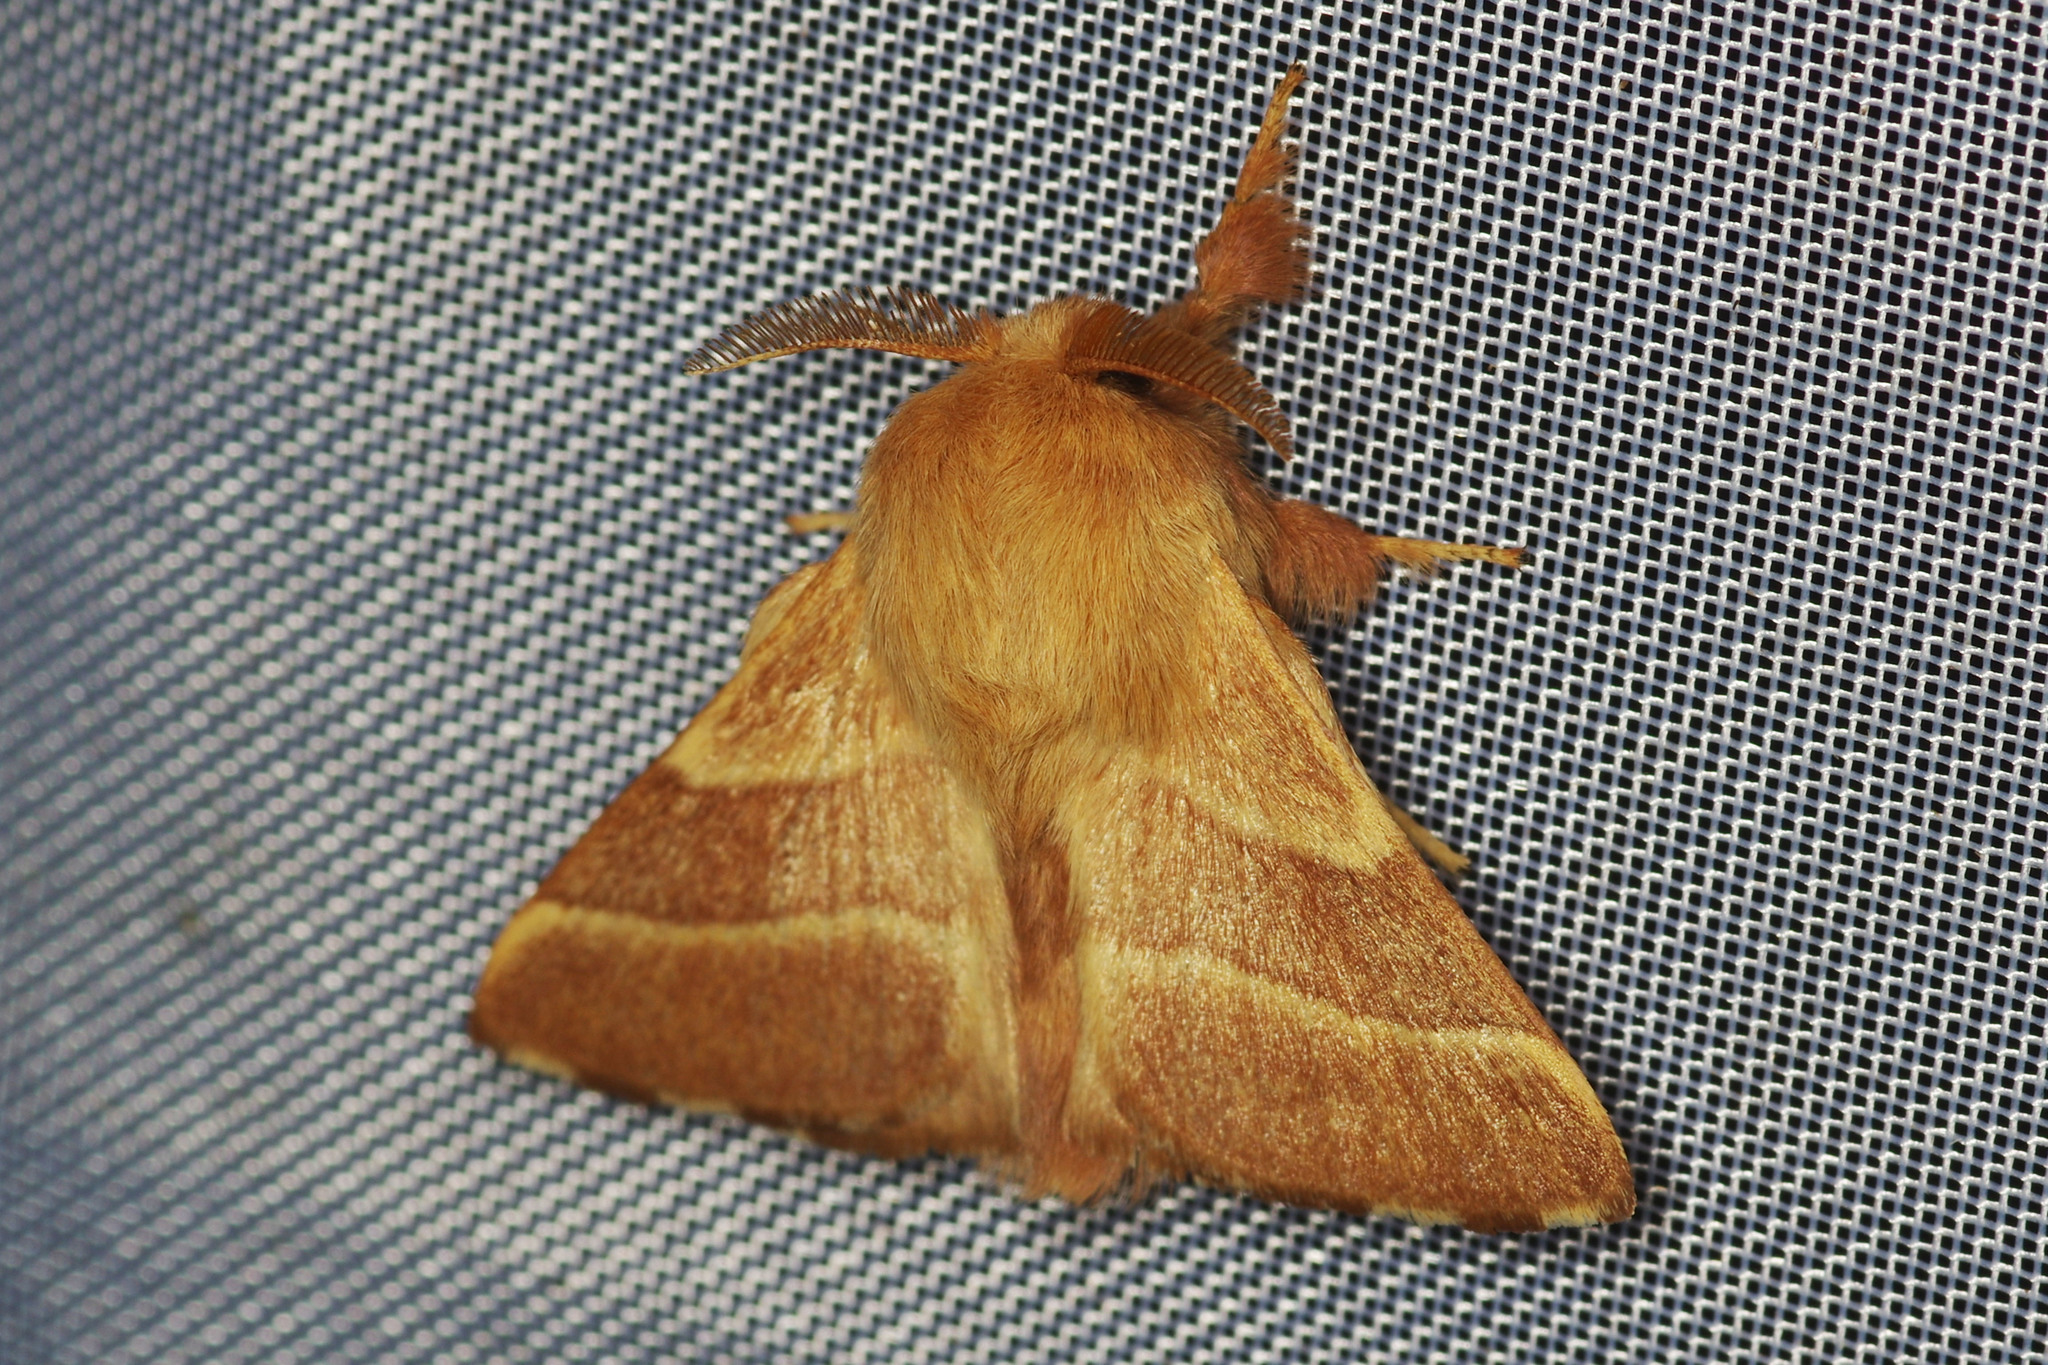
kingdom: Animalia
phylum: Arthropoda
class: Insecta
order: Lepidoptera
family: Lasiocampidae
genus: Malacosoma
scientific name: Malacosoma neustria
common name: The lackey
